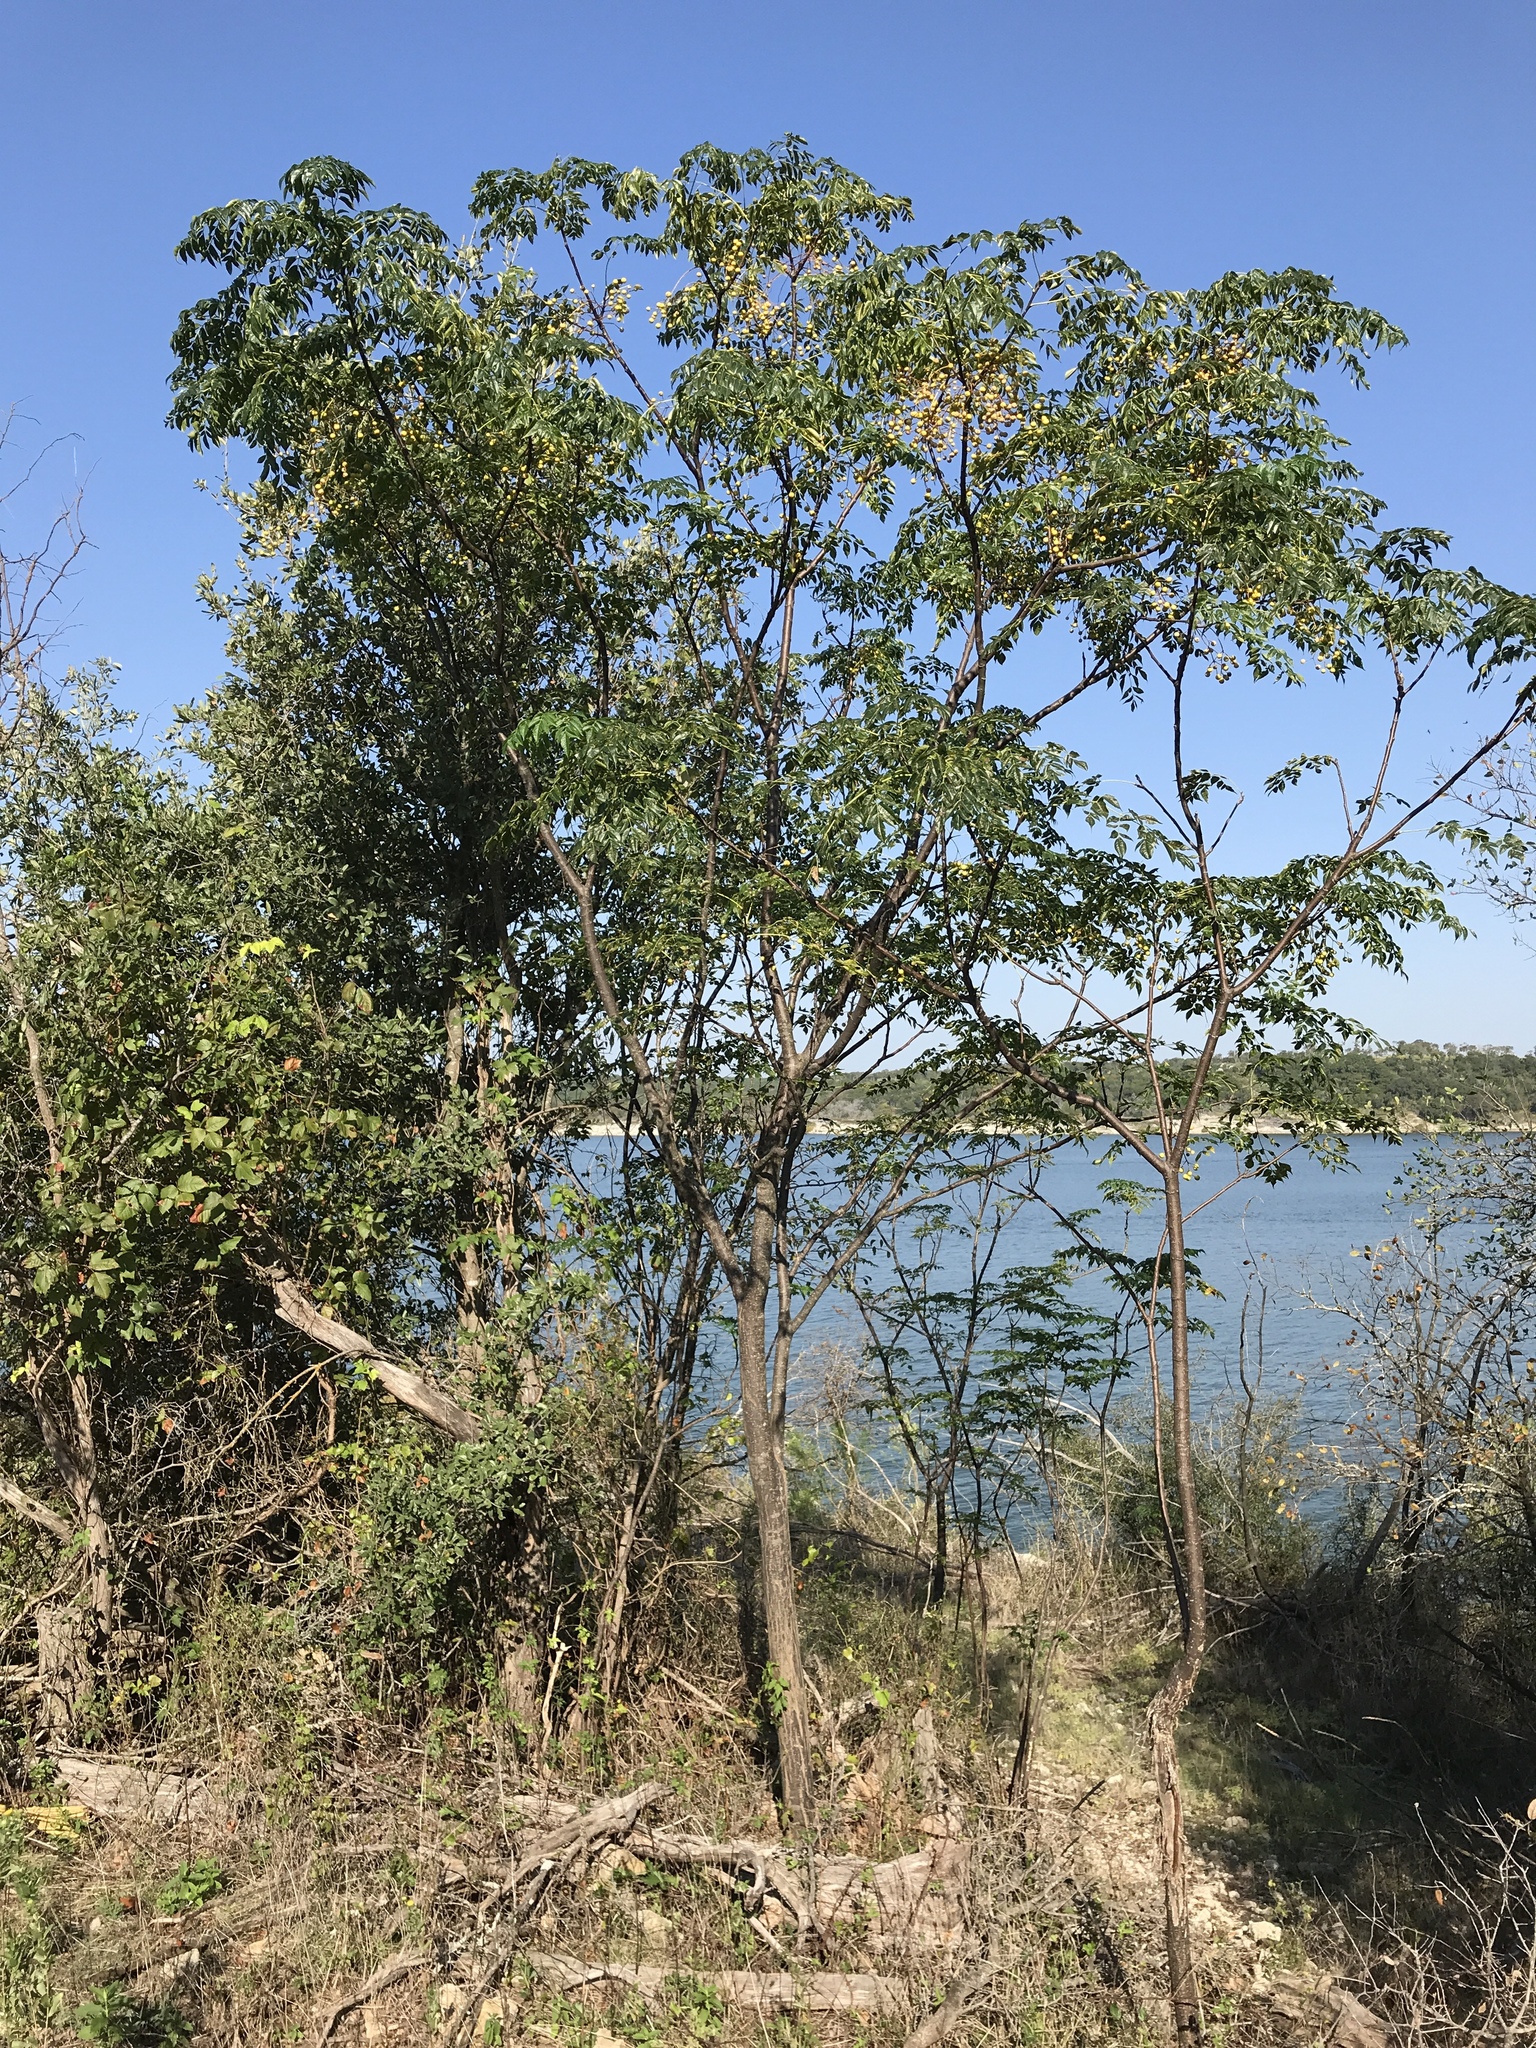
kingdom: Plantae
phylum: Tracheophyta
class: Magnoliopsida
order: Sapindales
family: Meliaceae
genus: Melia
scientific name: Melia azedarach
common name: Chinaberrytree
